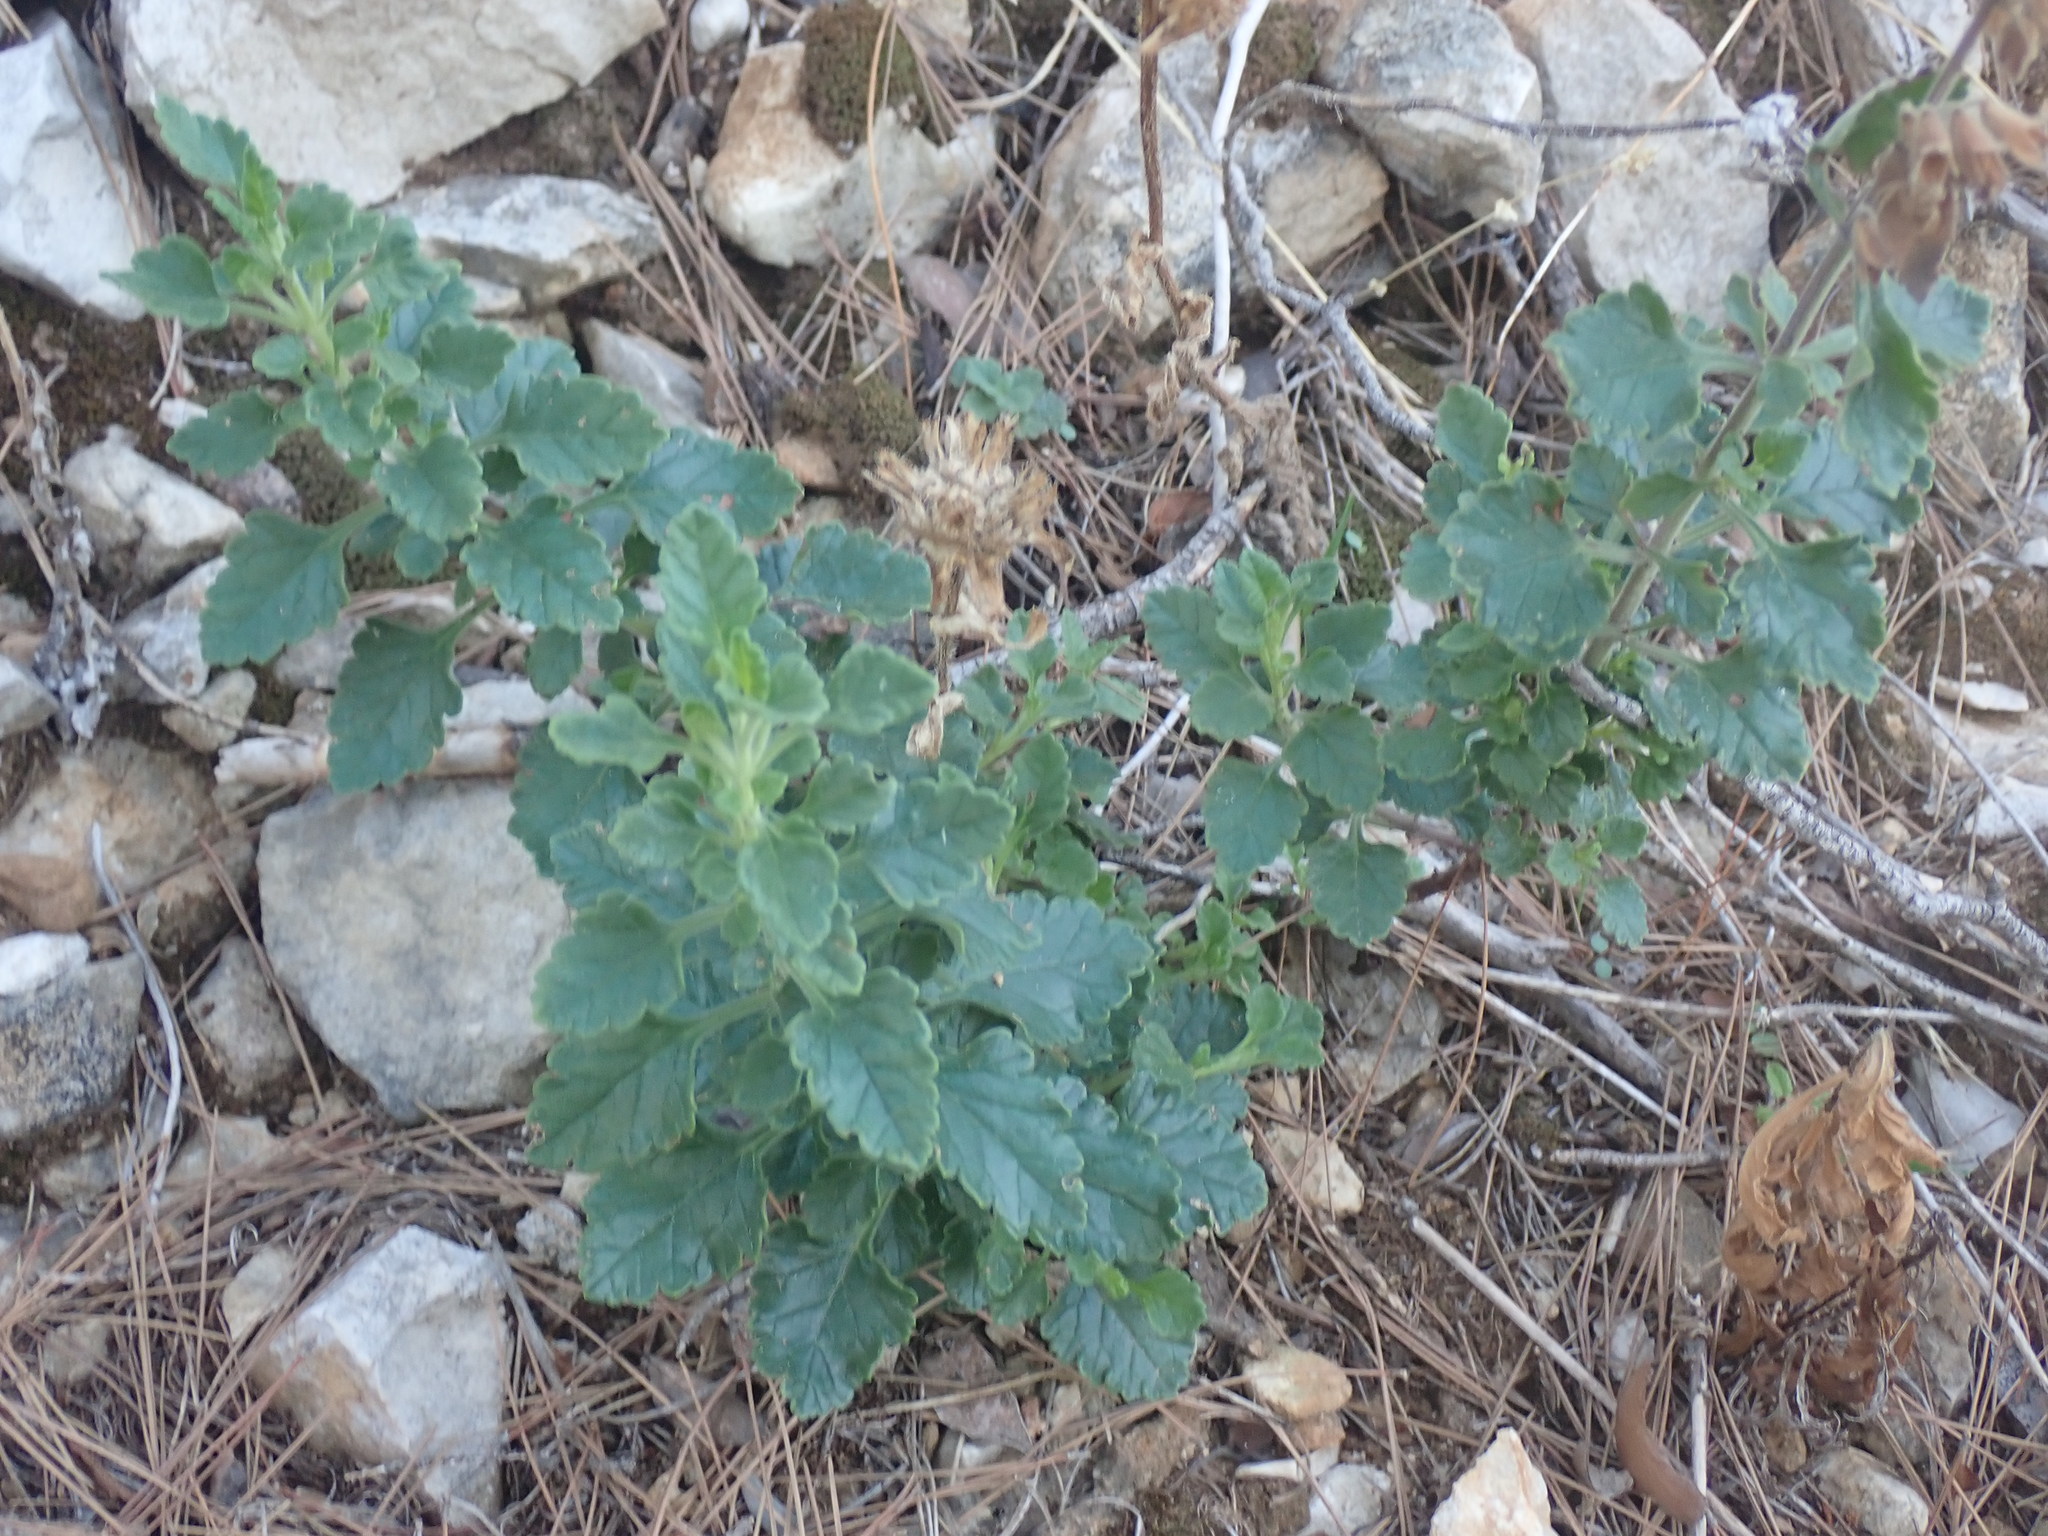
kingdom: Plantae
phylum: Tracheophyta
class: Magnoliopsida
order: Lamiales
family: Lamiaceae
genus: Teucrium
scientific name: Teucrium polium
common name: Poley
